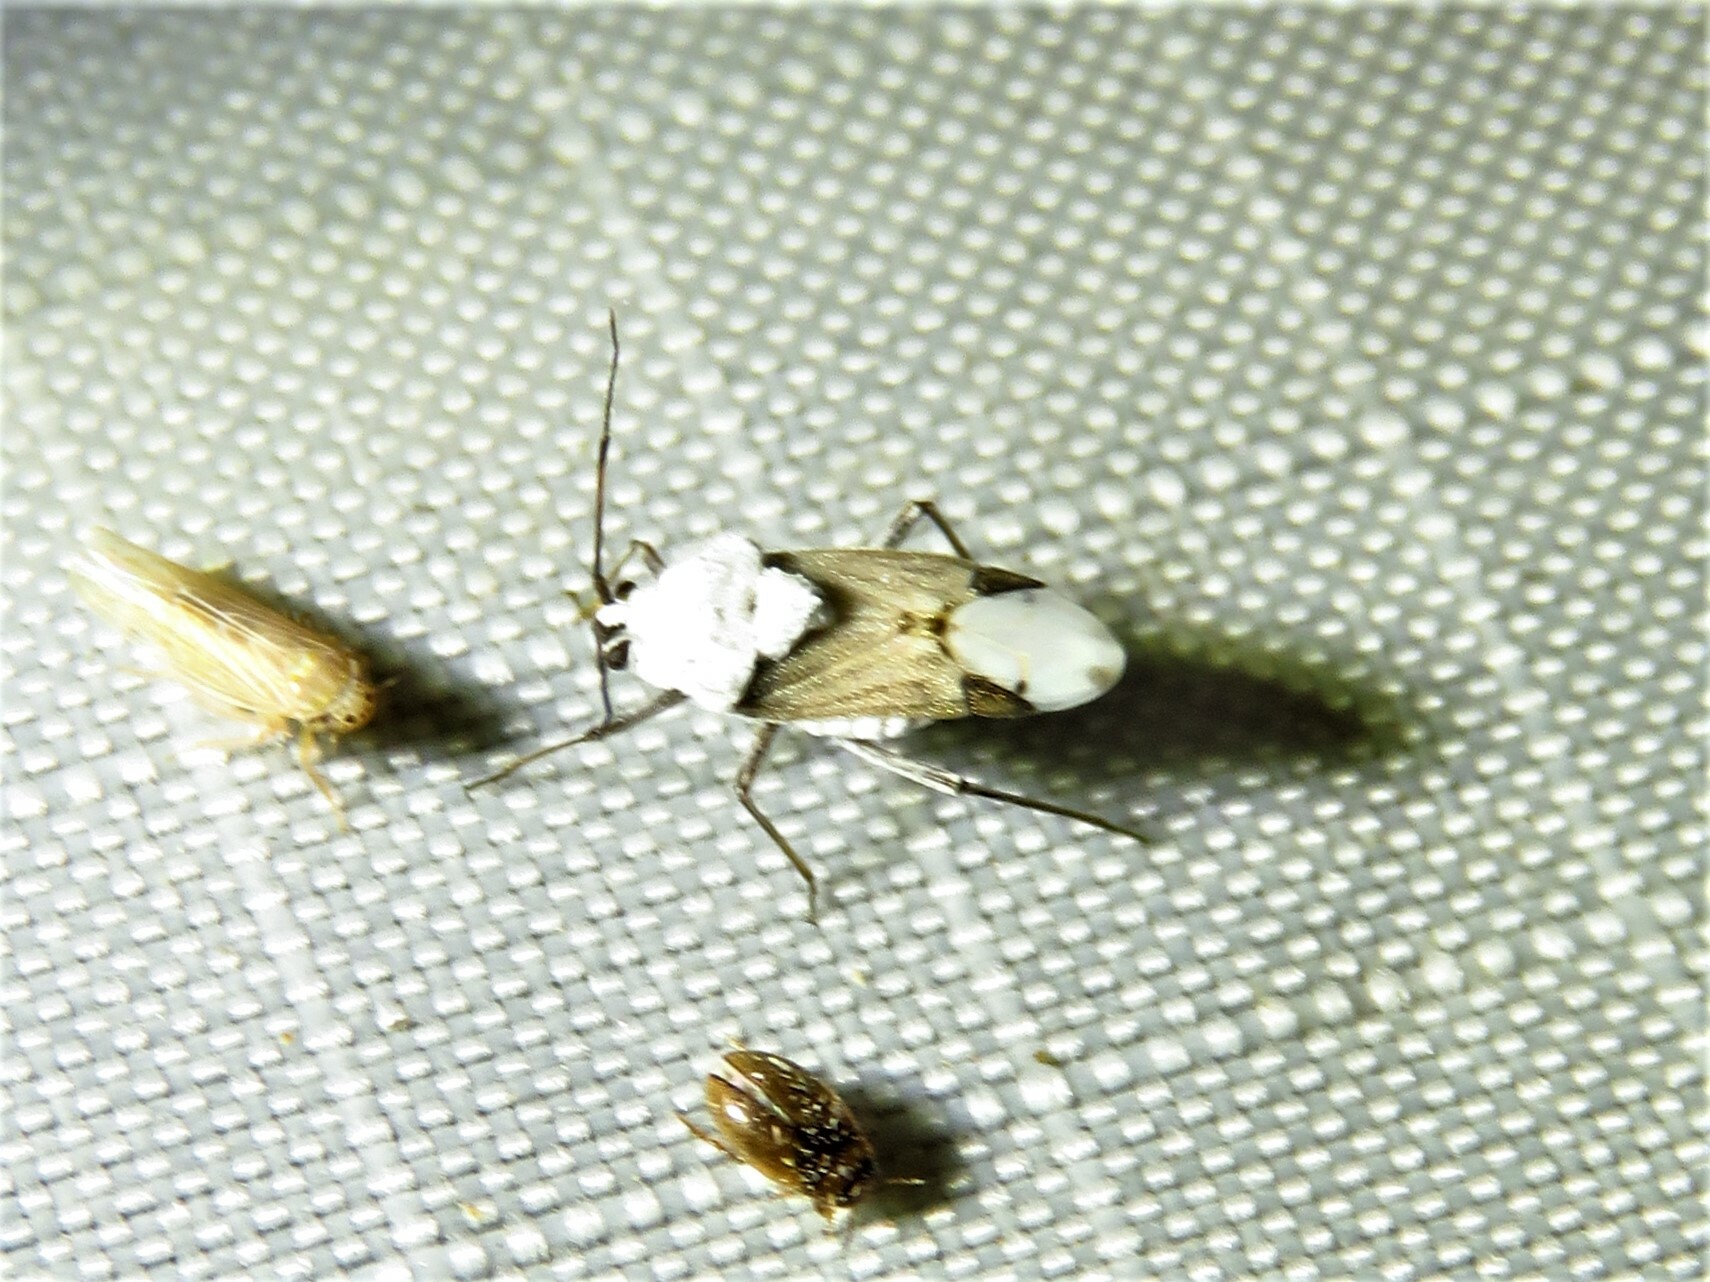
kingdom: Animalia
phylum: Arthropoda
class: Insecta
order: Hemiptera
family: Miridae
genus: Clivinema
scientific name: Clivinema
